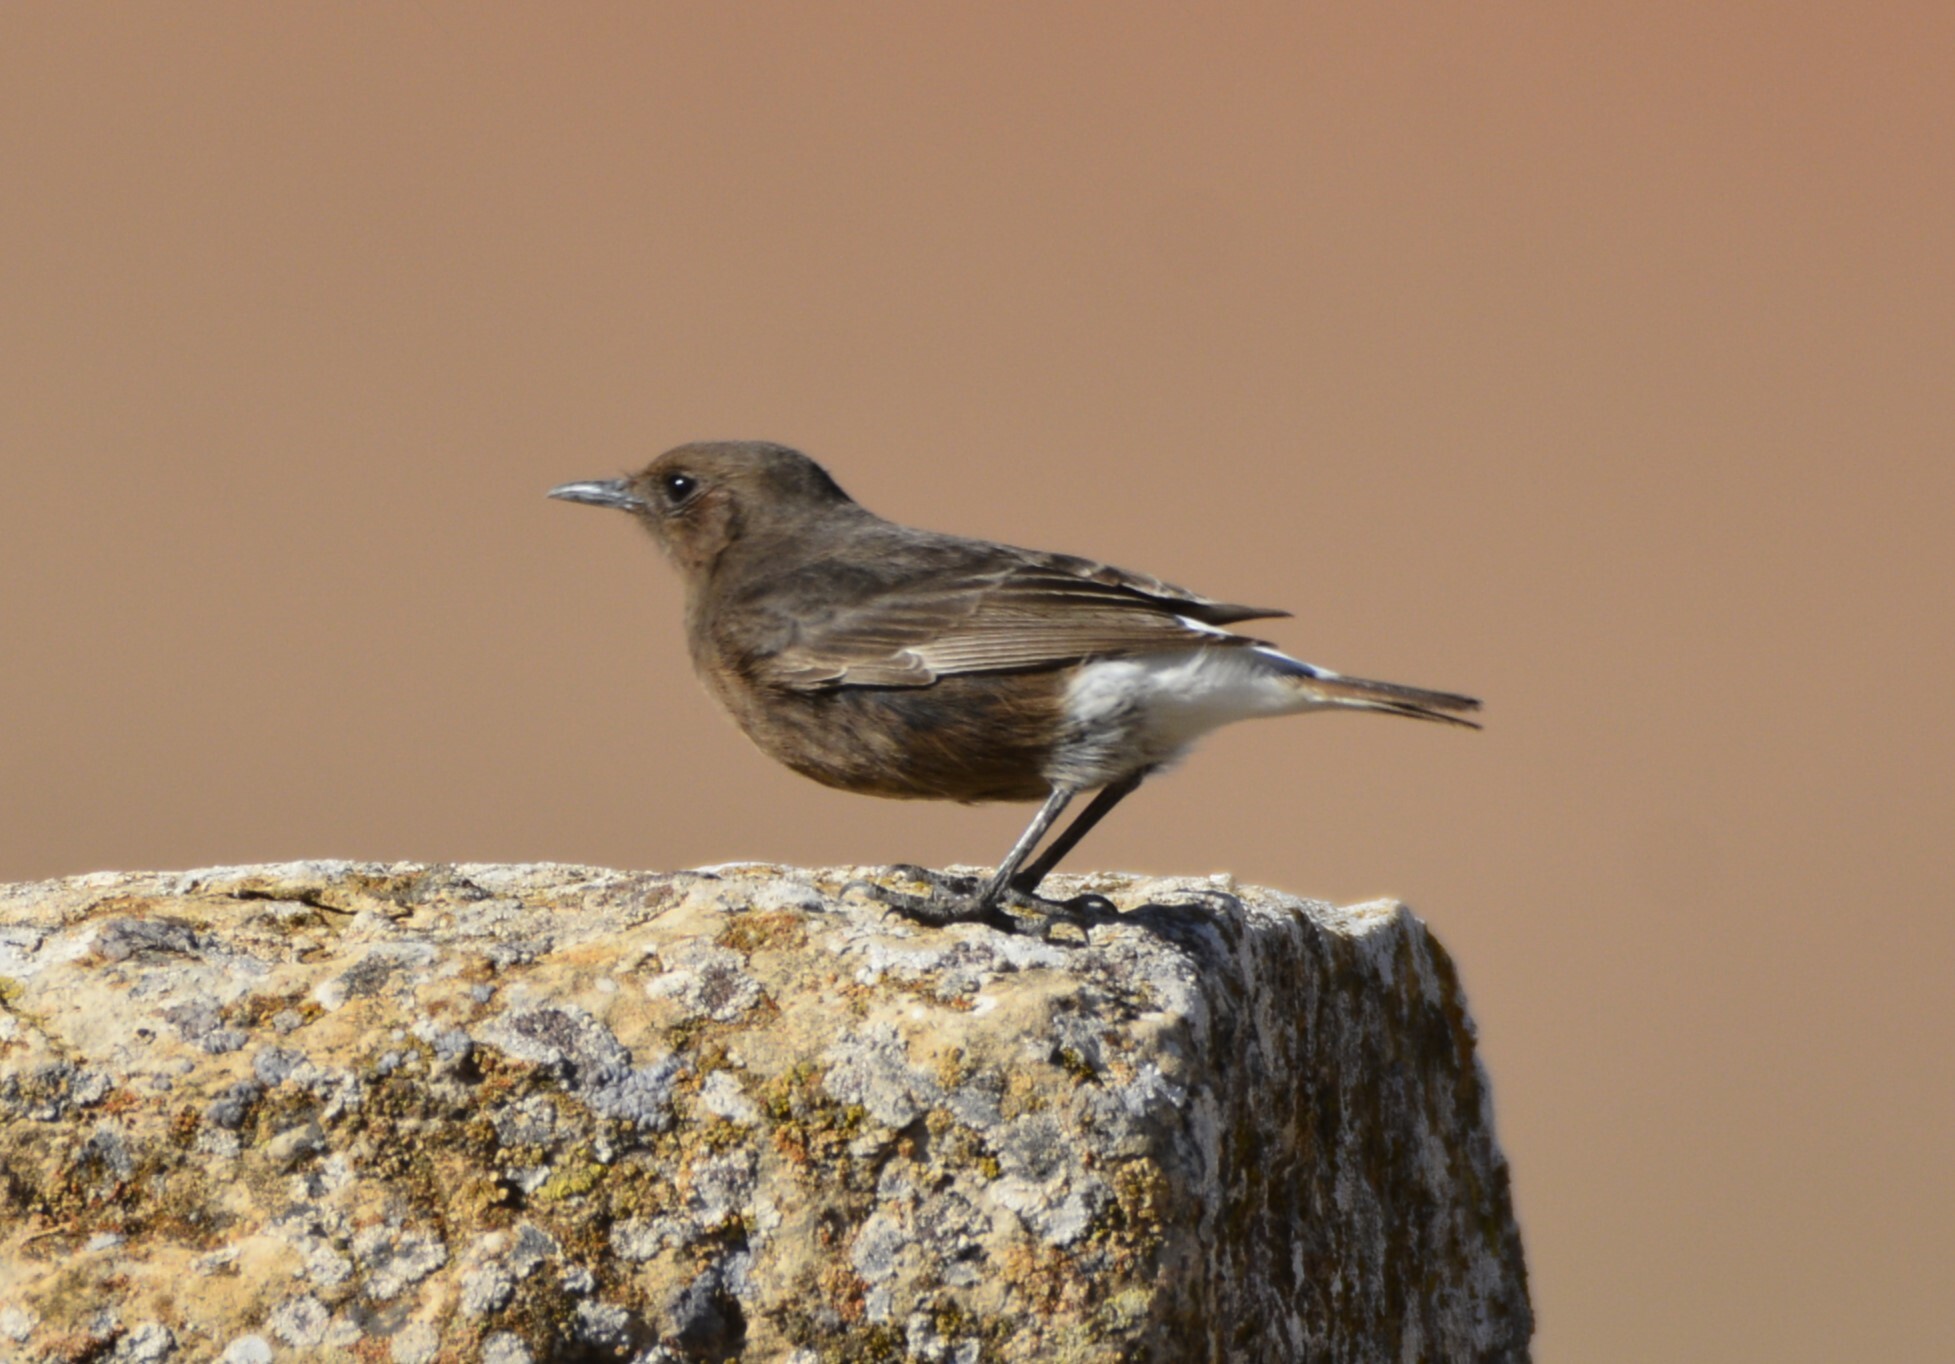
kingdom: Animalia
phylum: Chordata
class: Aves
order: Passeriformes
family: Muscicapidae
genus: Oenanthe
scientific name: Oenanthe leucura
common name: Black wheatear
